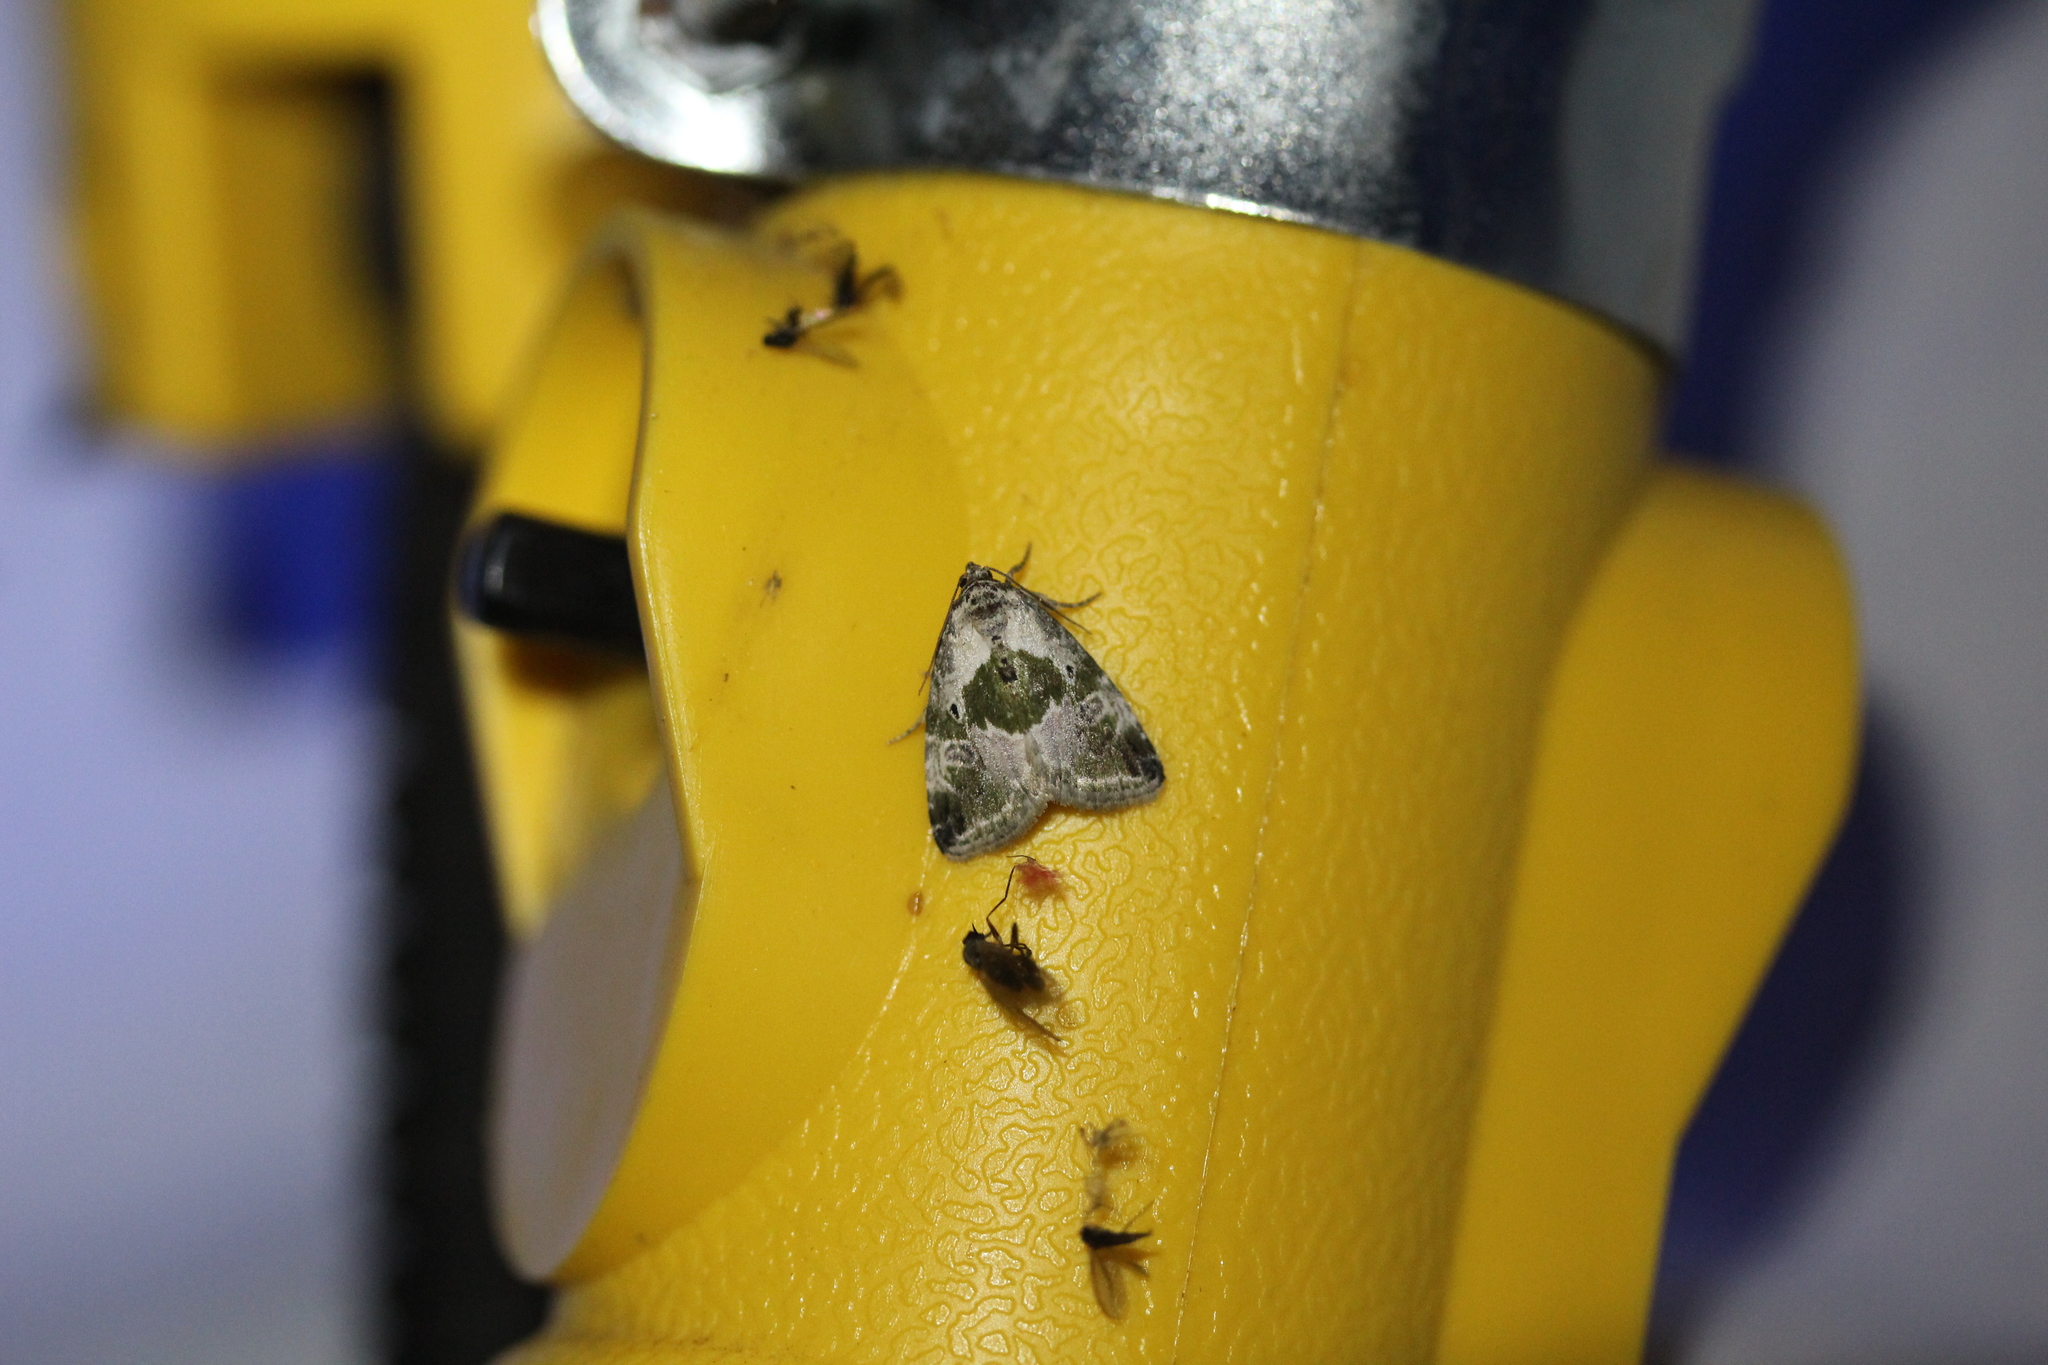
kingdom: Animalia
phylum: Arthropoda
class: Insecta
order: Lepidoptera
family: Noctuidae
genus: Maliattha
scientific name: Maliattha synochitis
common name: Black-dotted glyph
